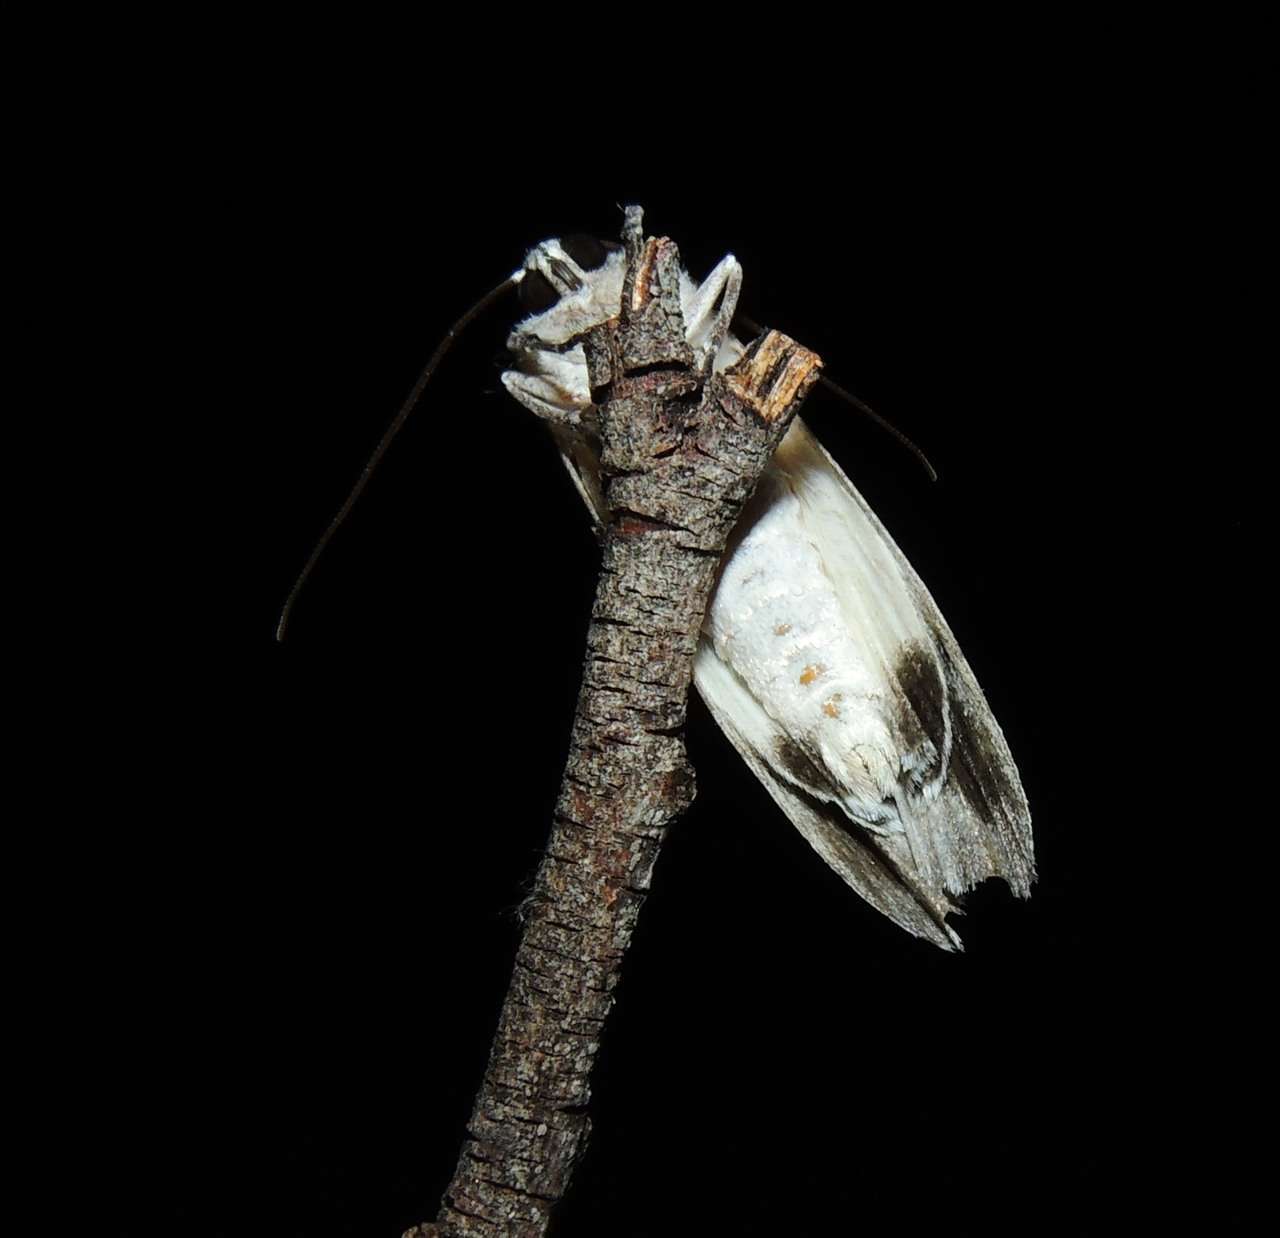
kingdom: Animalia
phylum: Arthropoda
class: Insecta
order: Lepidoptera
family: Geometridae
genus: Capusa
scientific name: Capusa senilis
